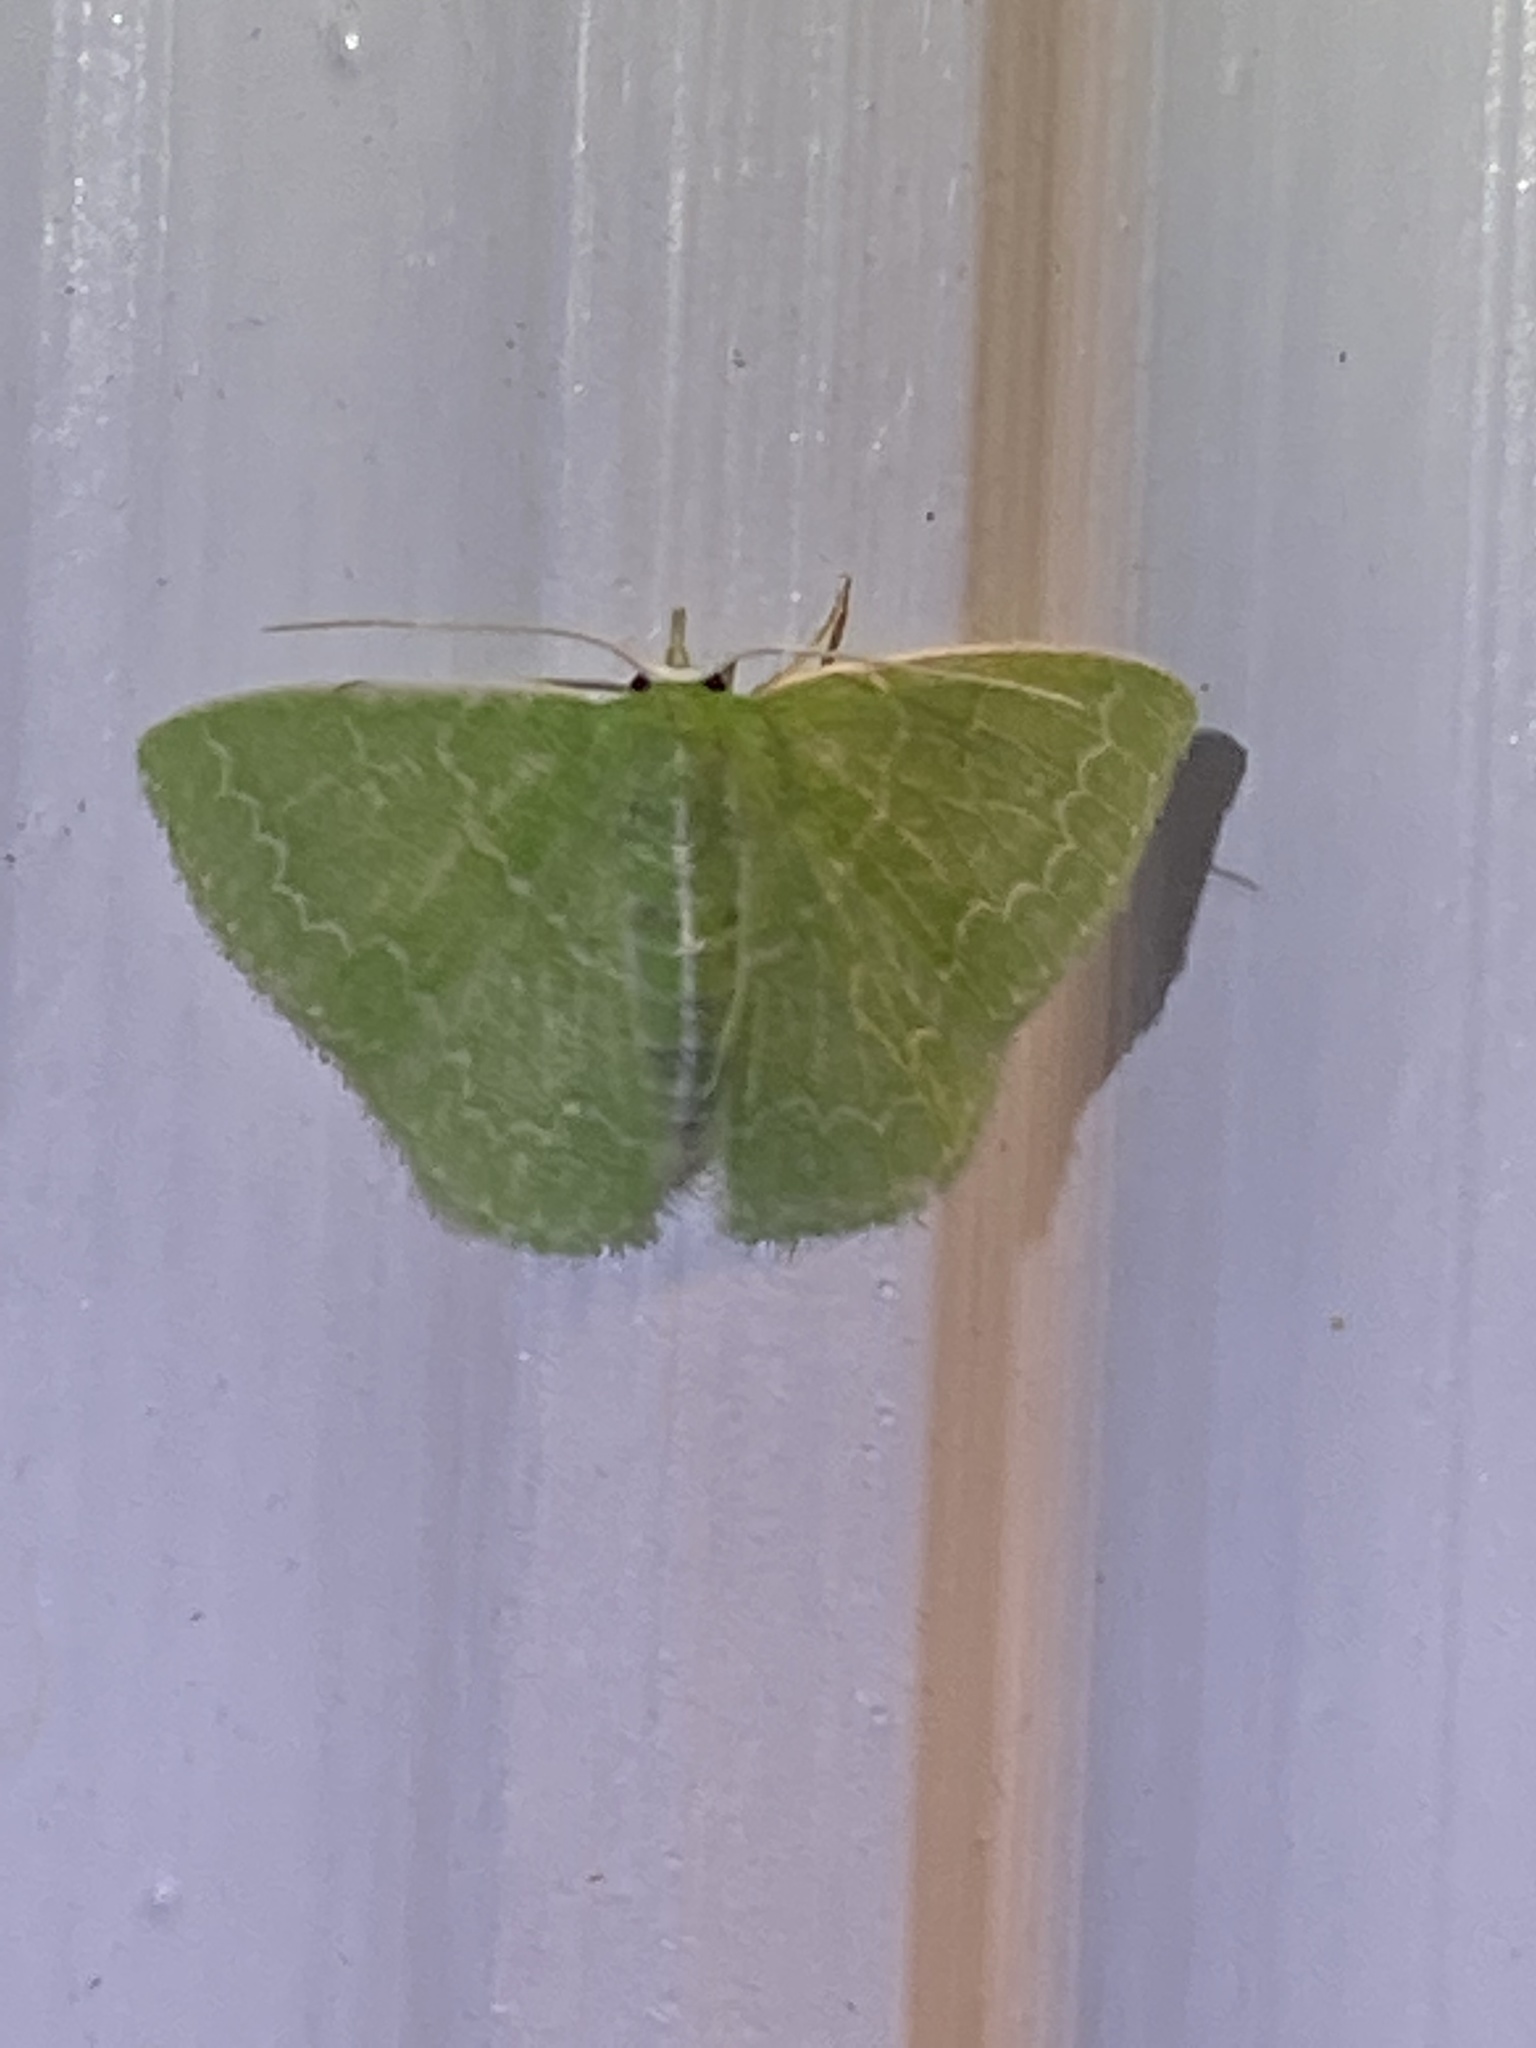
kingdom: Animalia
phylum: Arthropoda
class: Insecta
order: Lepidoptera
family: Geometridae
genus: Synchlora
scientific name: Synchlora frondaria
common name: Southern emerald
